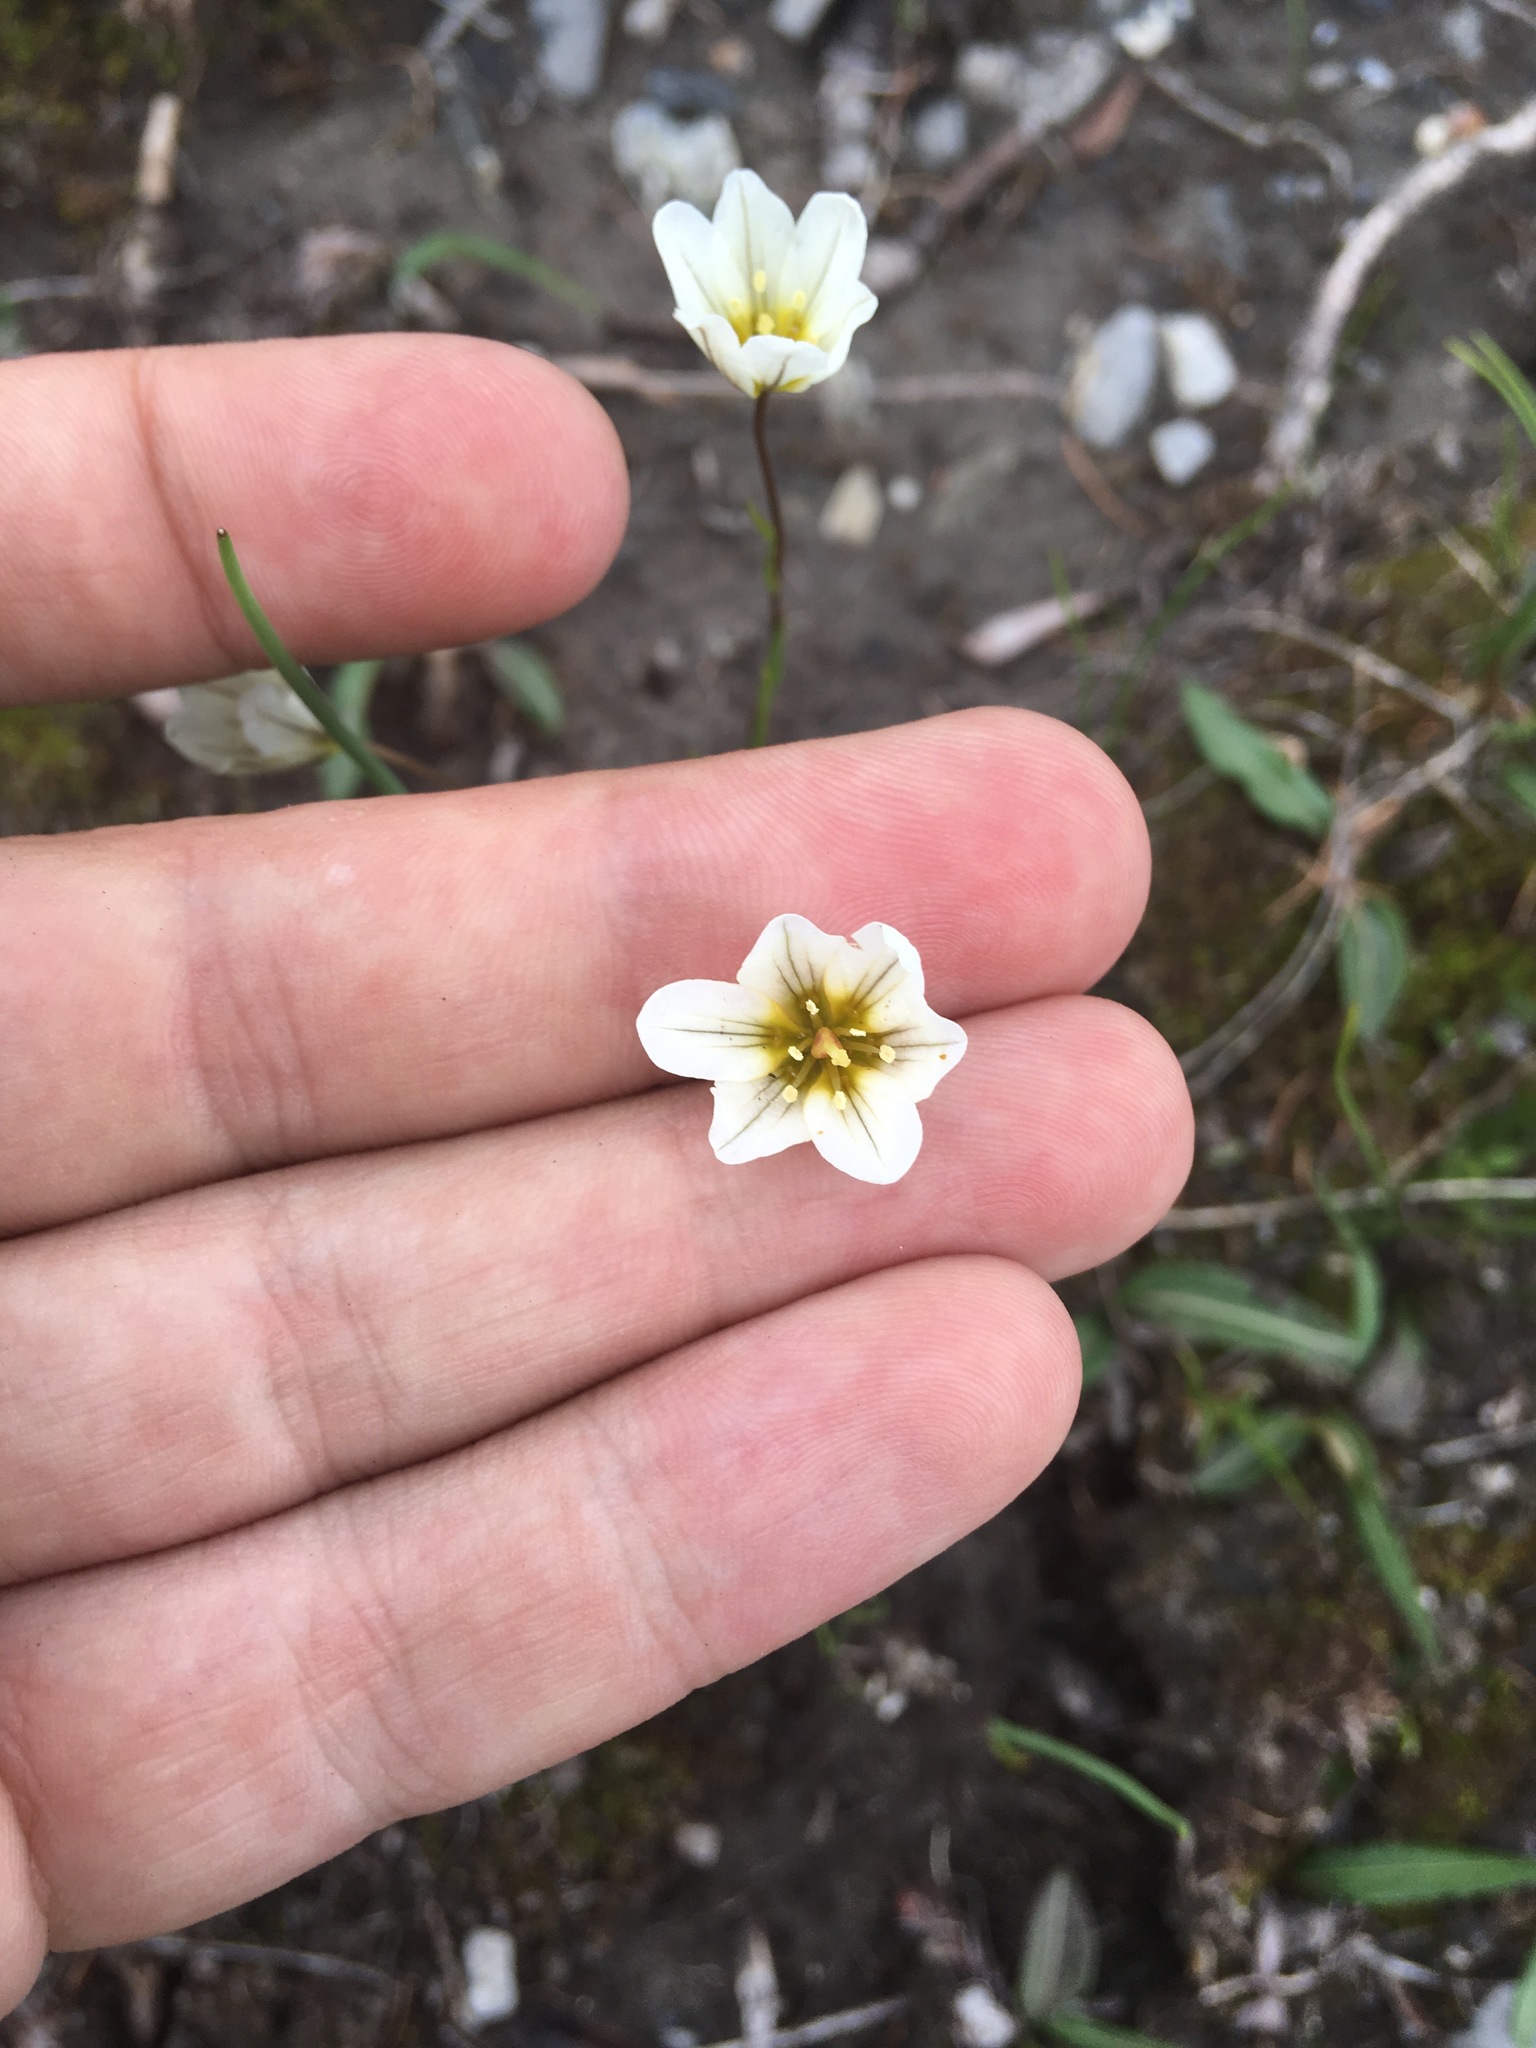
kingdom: Plantae
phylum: Tracheophyta
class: Liliopsida
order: Liliales
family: Liliaceae
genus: Gagea
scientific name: Gagea serotina
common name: Snowdon lily
